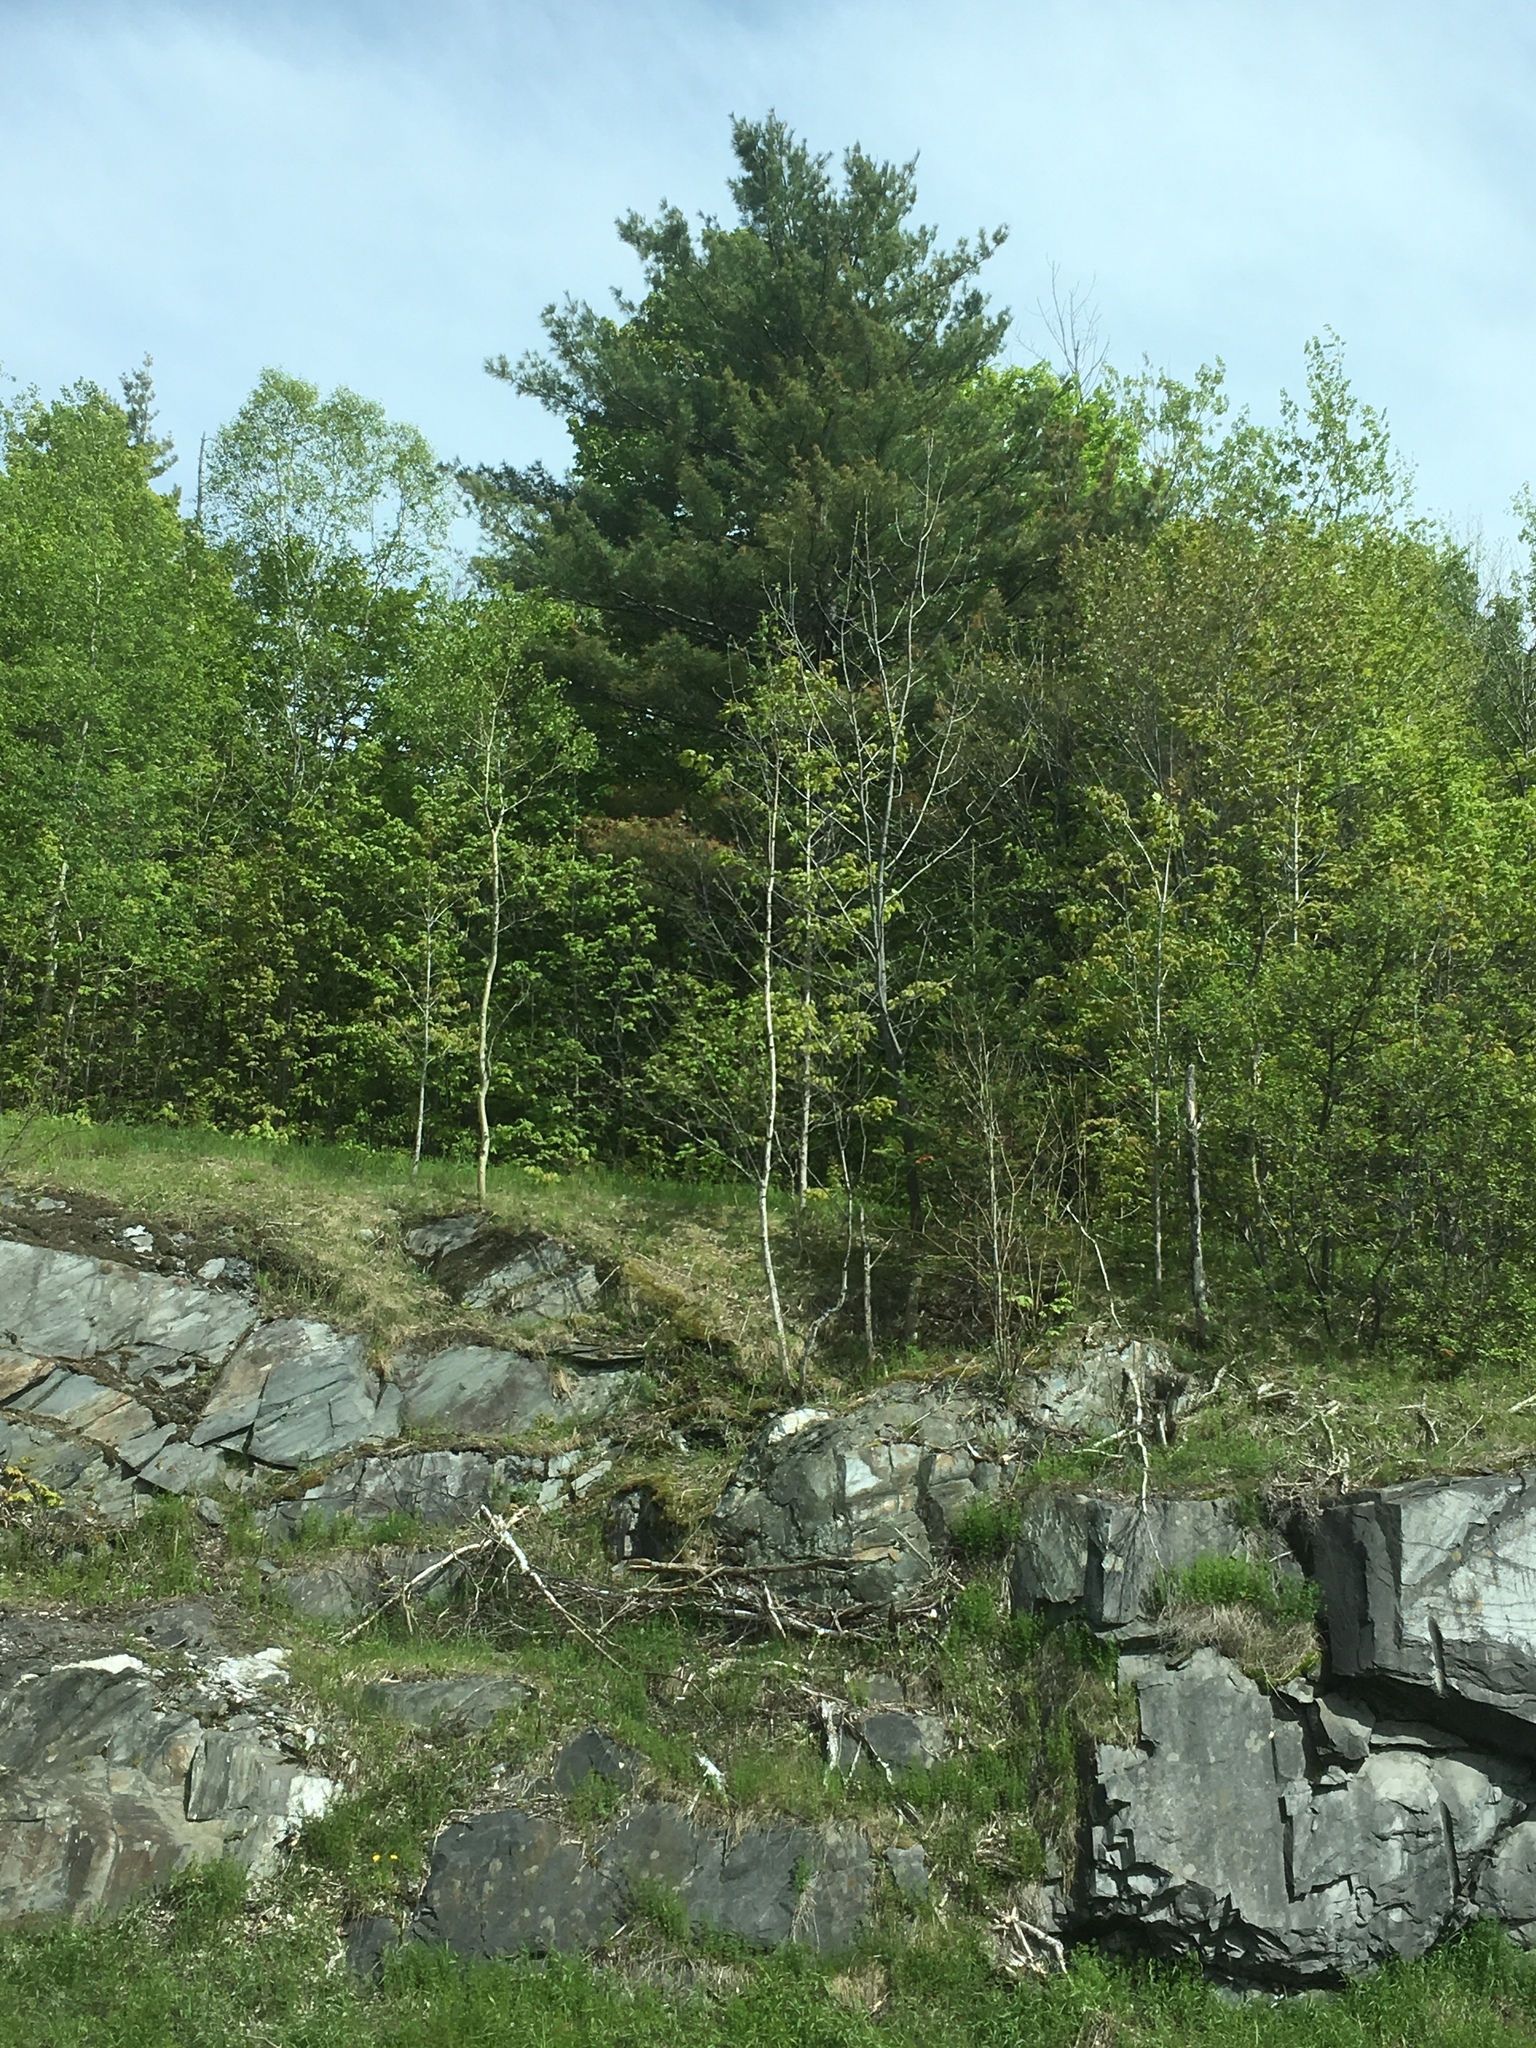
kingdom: Plantae
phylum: Tracheophyta
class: Pinopsida
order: Pinales
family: Pinaceae
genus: Pinus
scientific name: Pinus strobus
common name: Weymouth pine
